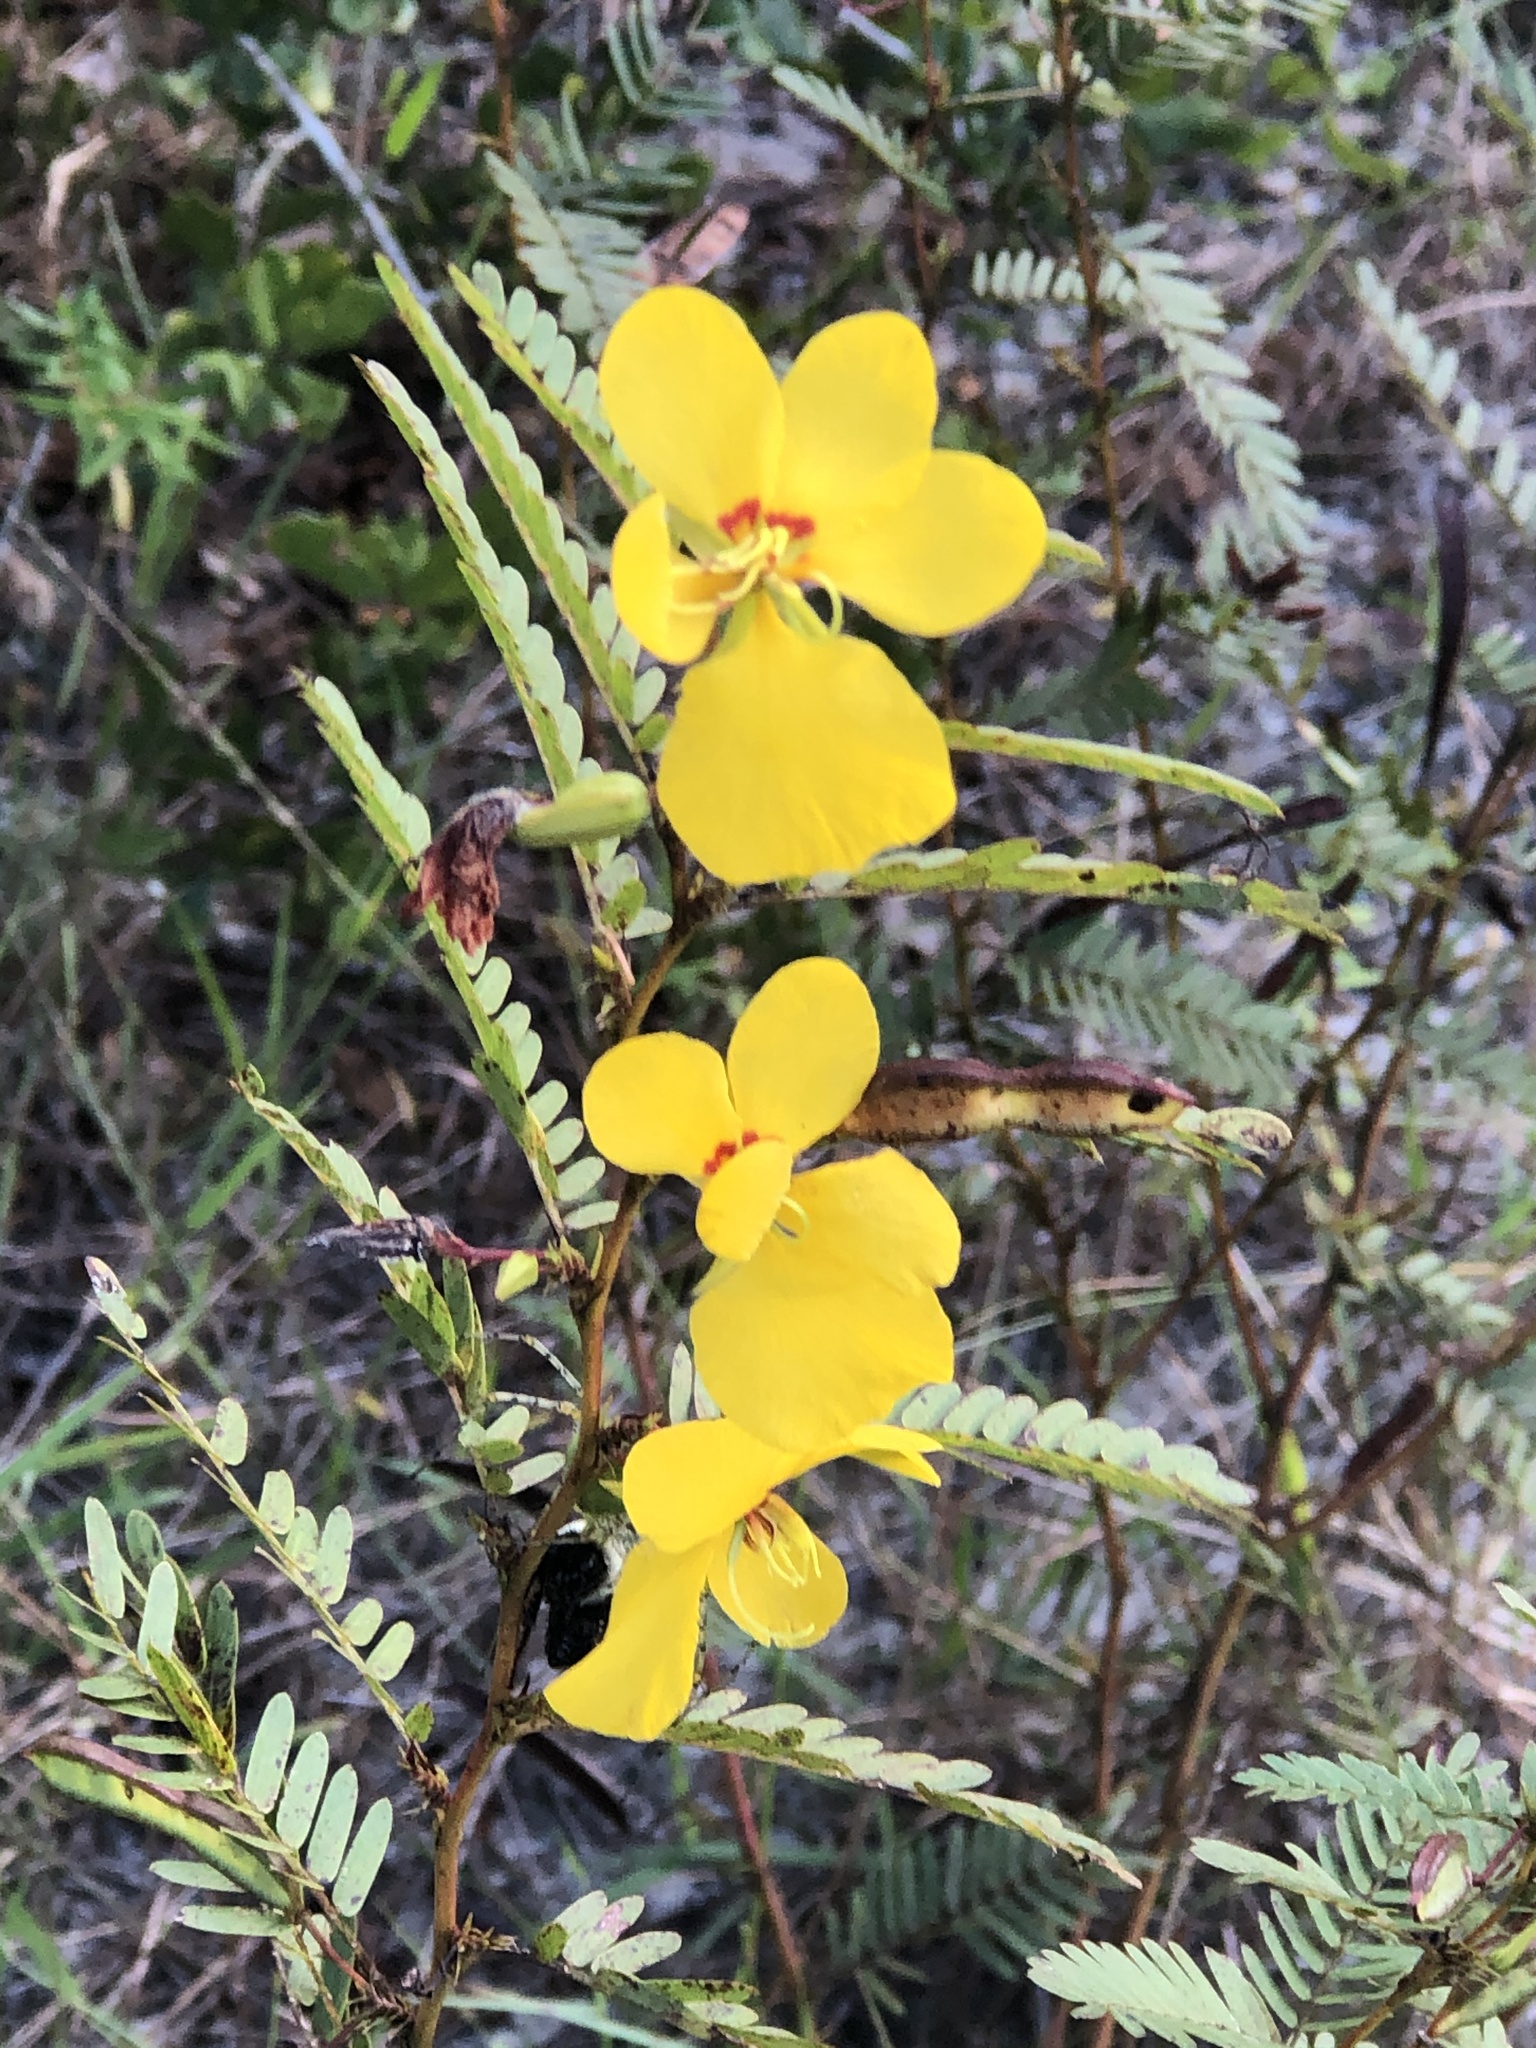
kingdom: Plantae
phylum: Tracheophyta
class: Magnoliopsida
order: Fabales
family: Fabaceae
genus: Chamaecrista
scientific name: Chamaecrista fasciculata
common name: Golden cassia
